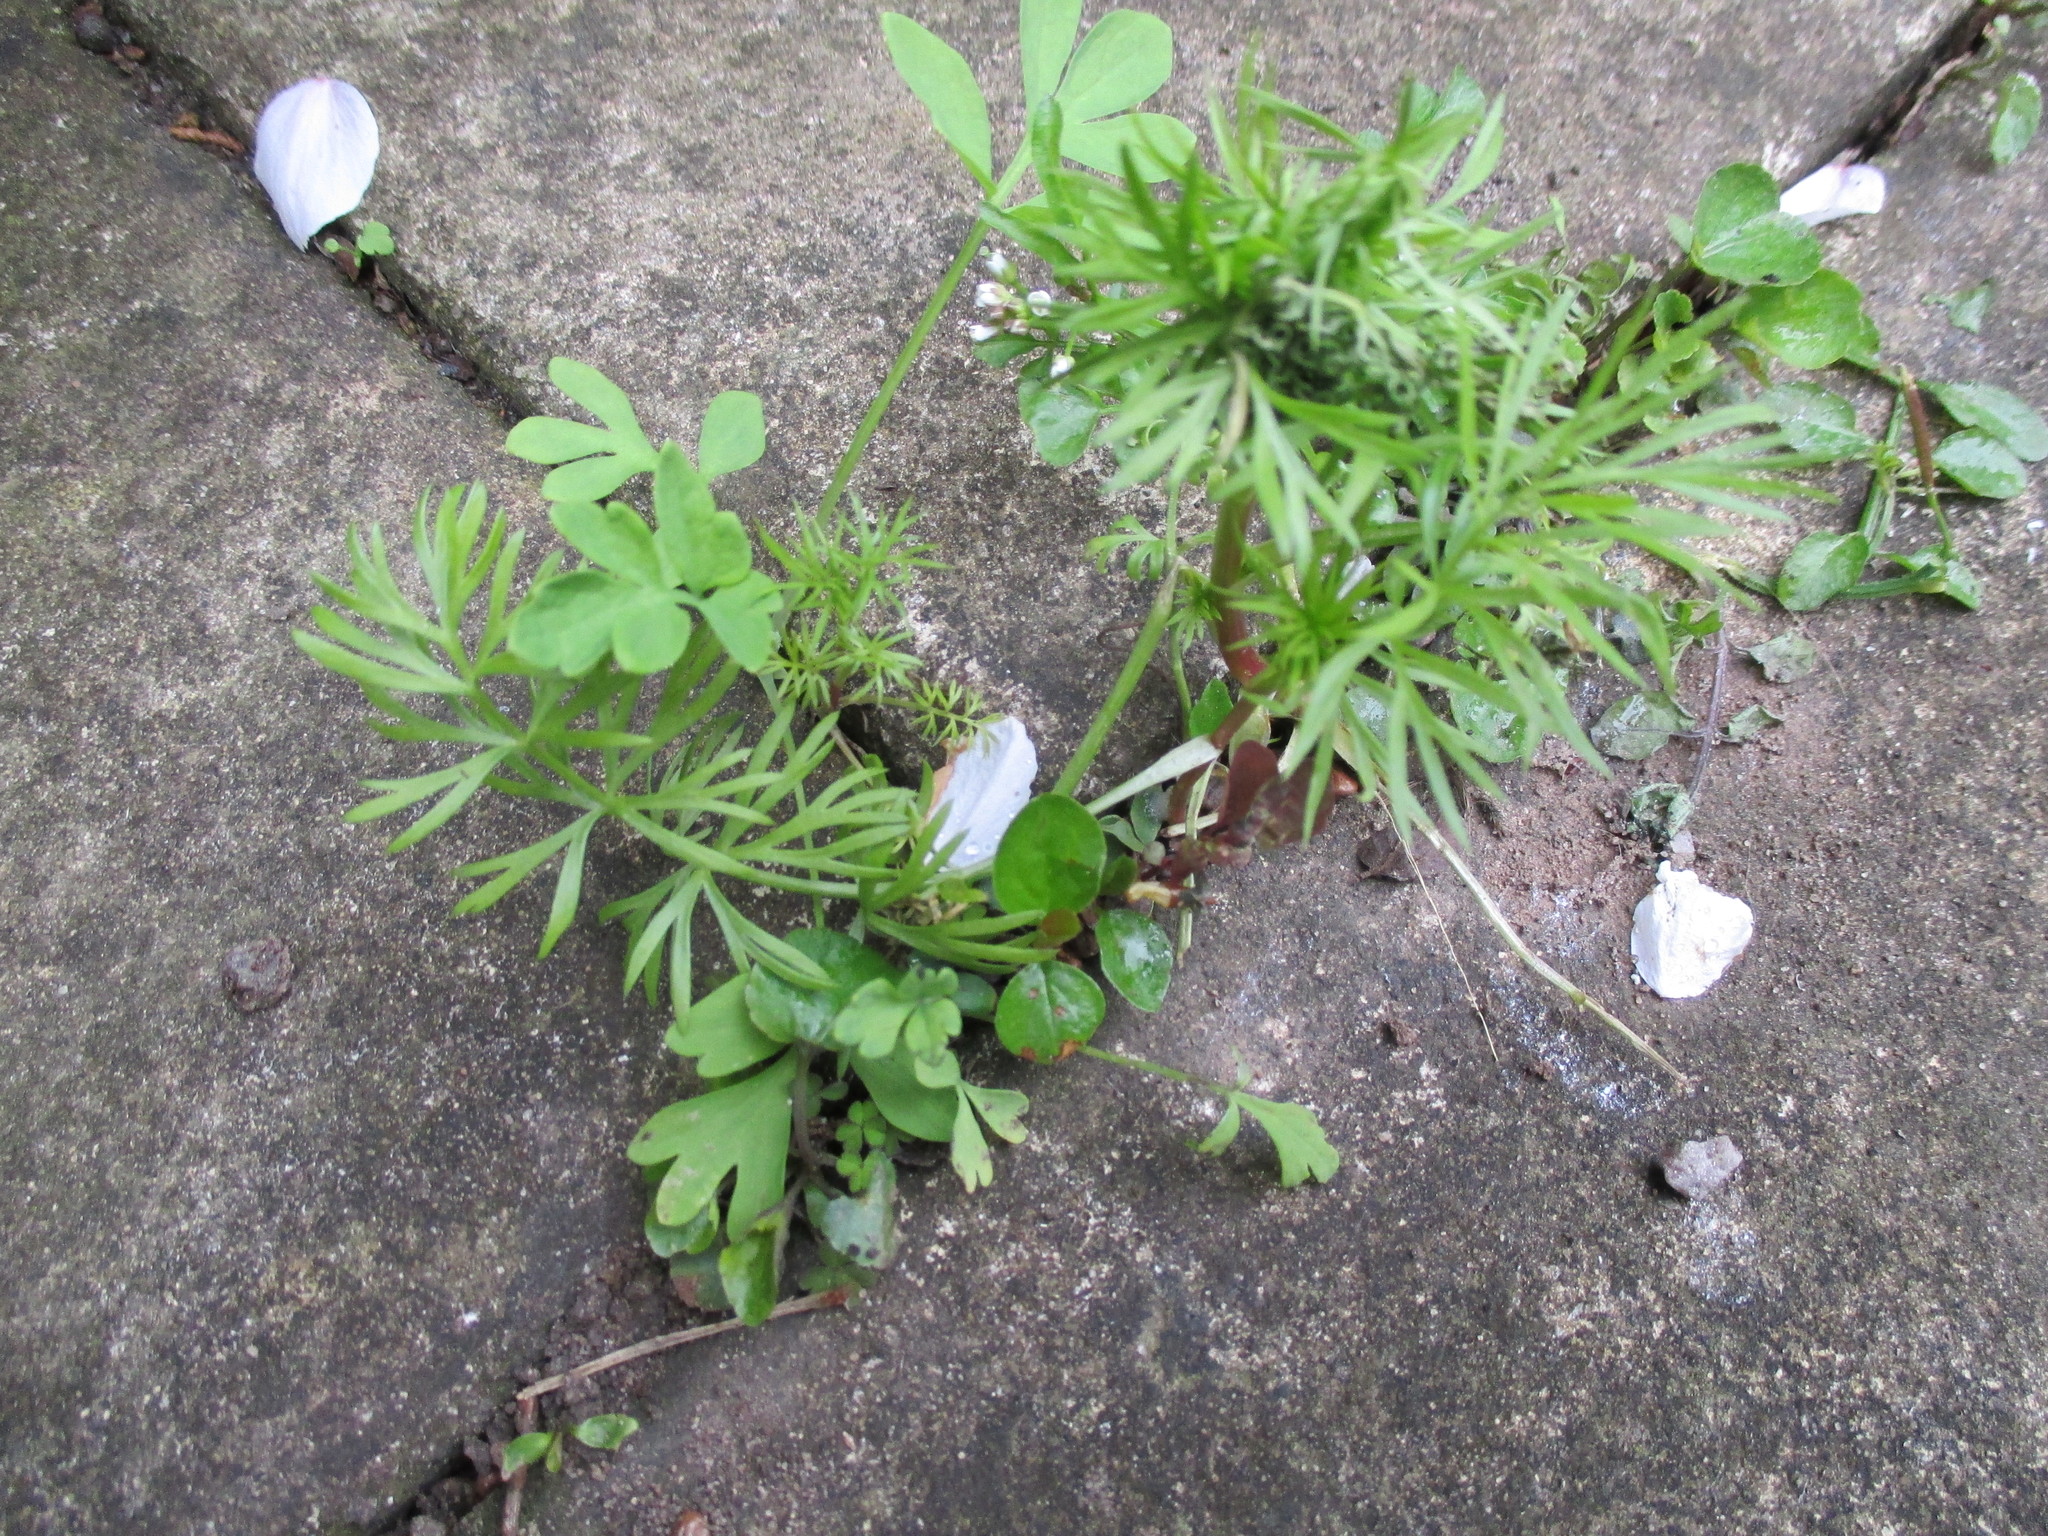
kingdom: Plantae
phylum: Tracheophyta
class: Magnoliopsida
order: Ranunculales
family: Ranunculaceae
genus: Nigella
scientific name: Nigella damascena
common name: Love-in-a-mist
